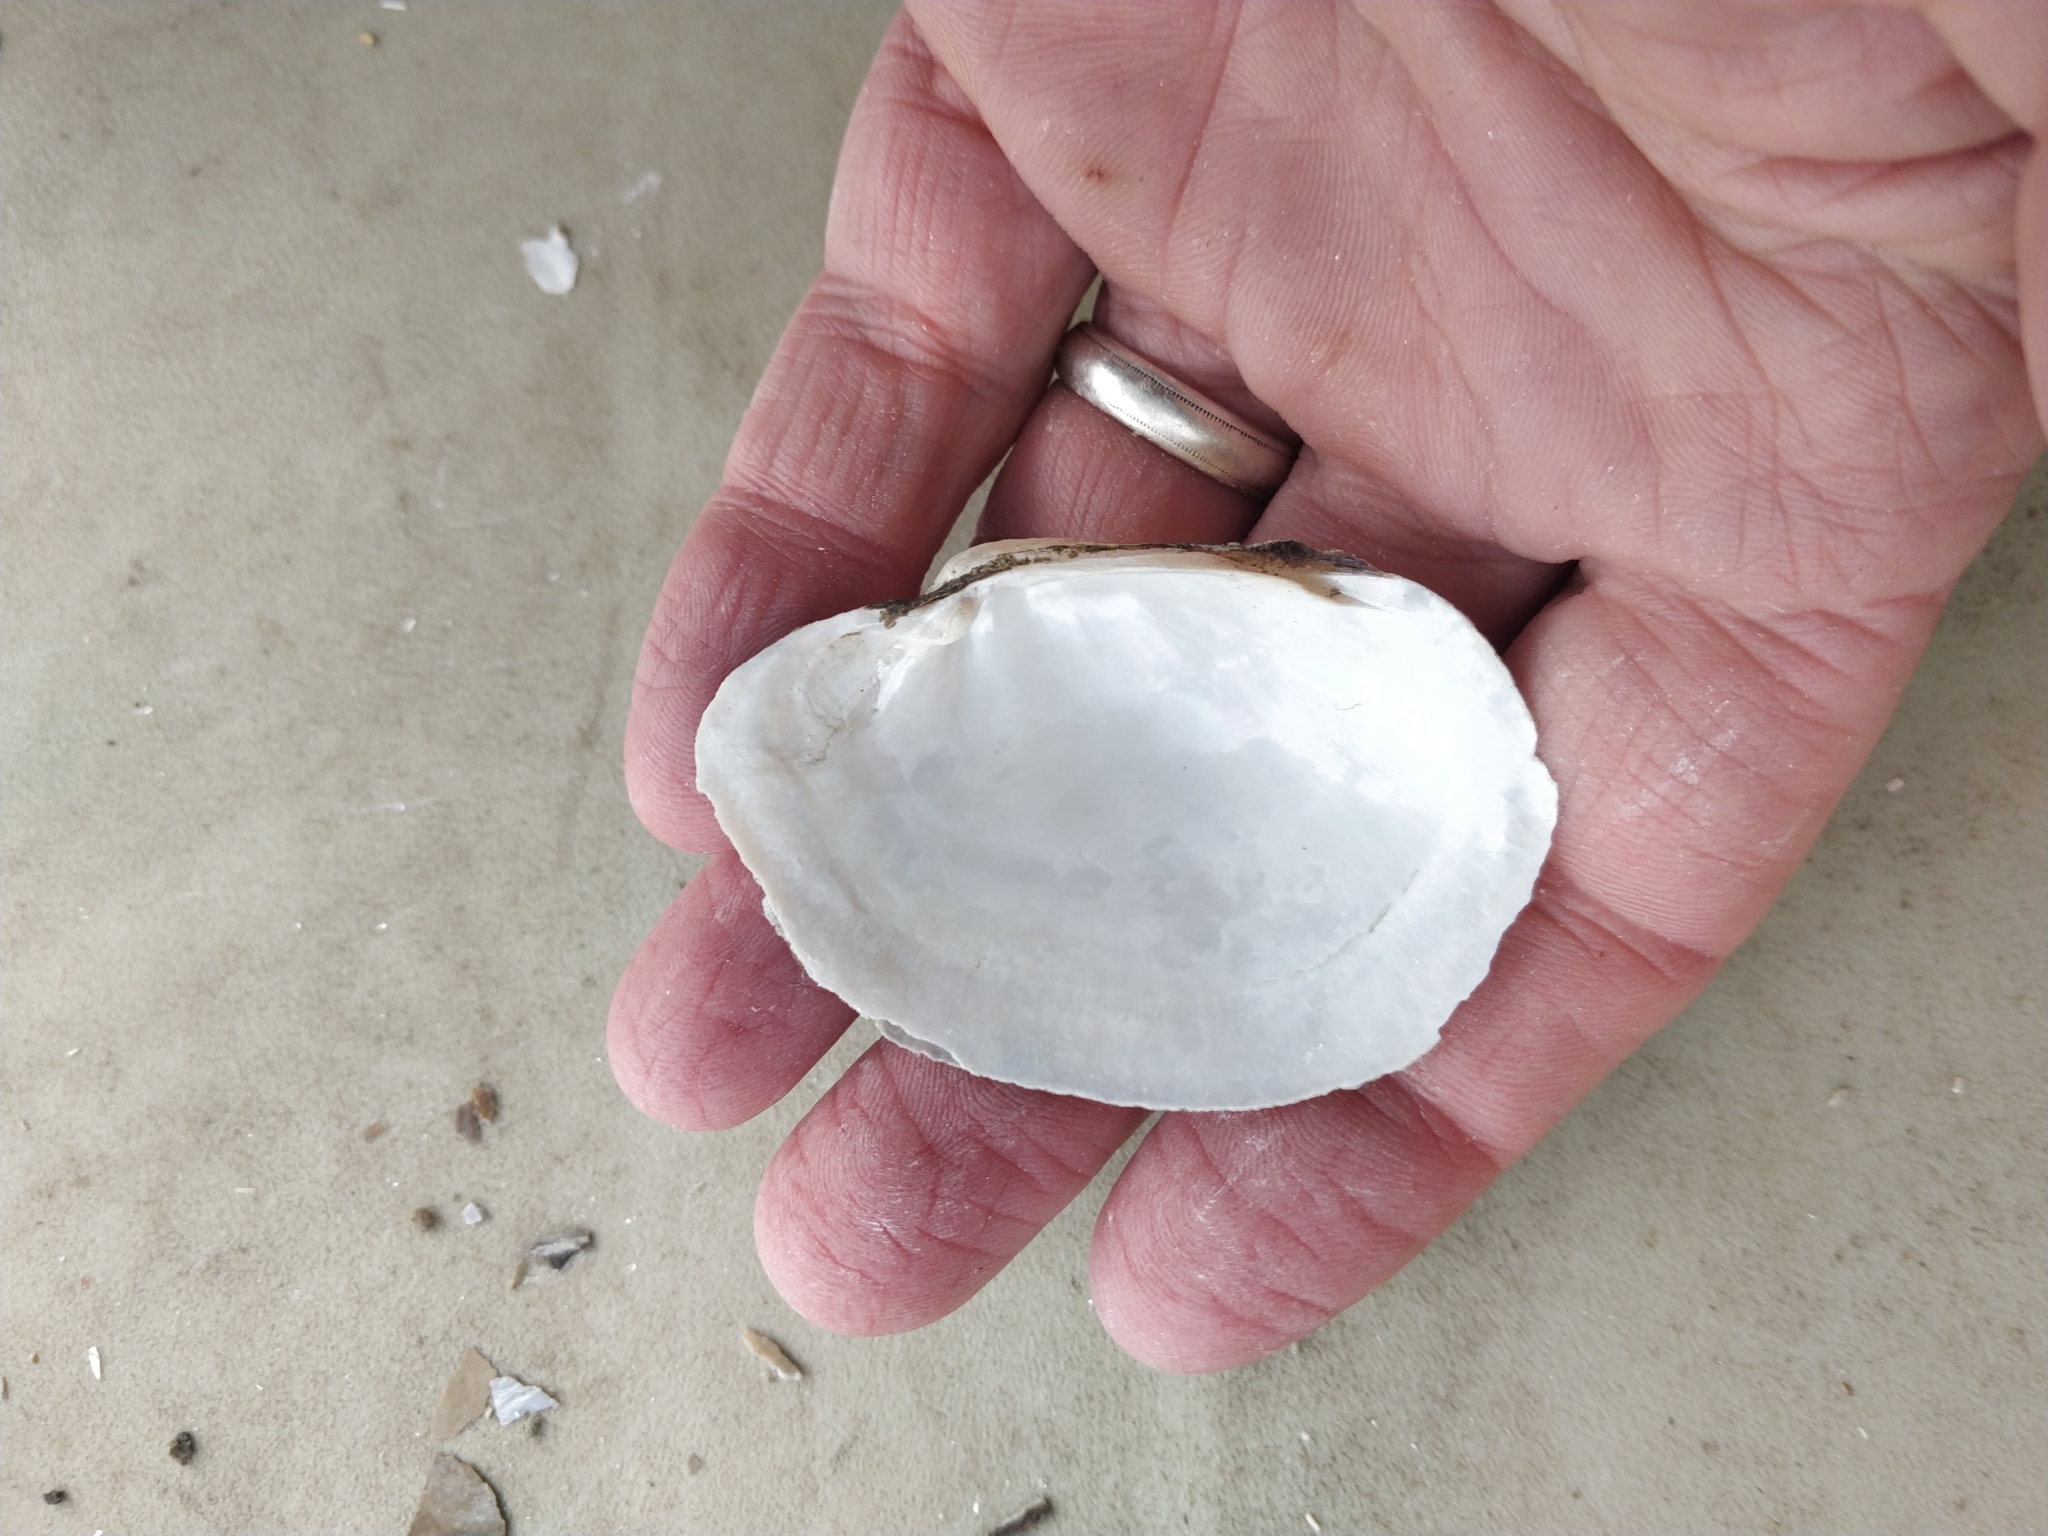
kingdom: Animalia
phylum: Mollusca
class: Bivalvia
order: Unionida
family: Unionidae
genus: Lampsilis
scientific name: Lampsilis cardium
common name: Plain pocketbook
